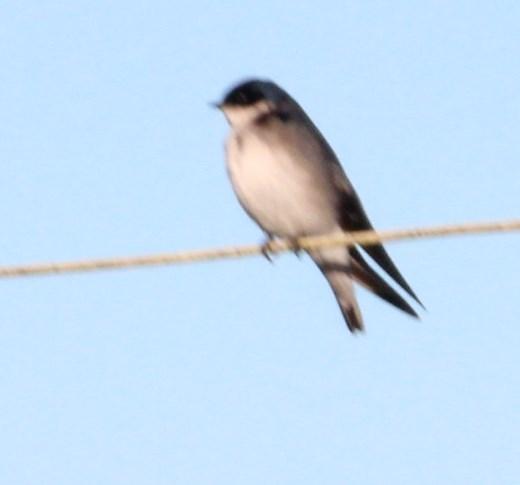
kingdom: Animalia
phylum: Chordata
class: Aves
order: Passeriformes
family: Hirundinidae
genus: Tachycineta
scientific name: Tachycineta leucopyga
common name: Chilean swallow
